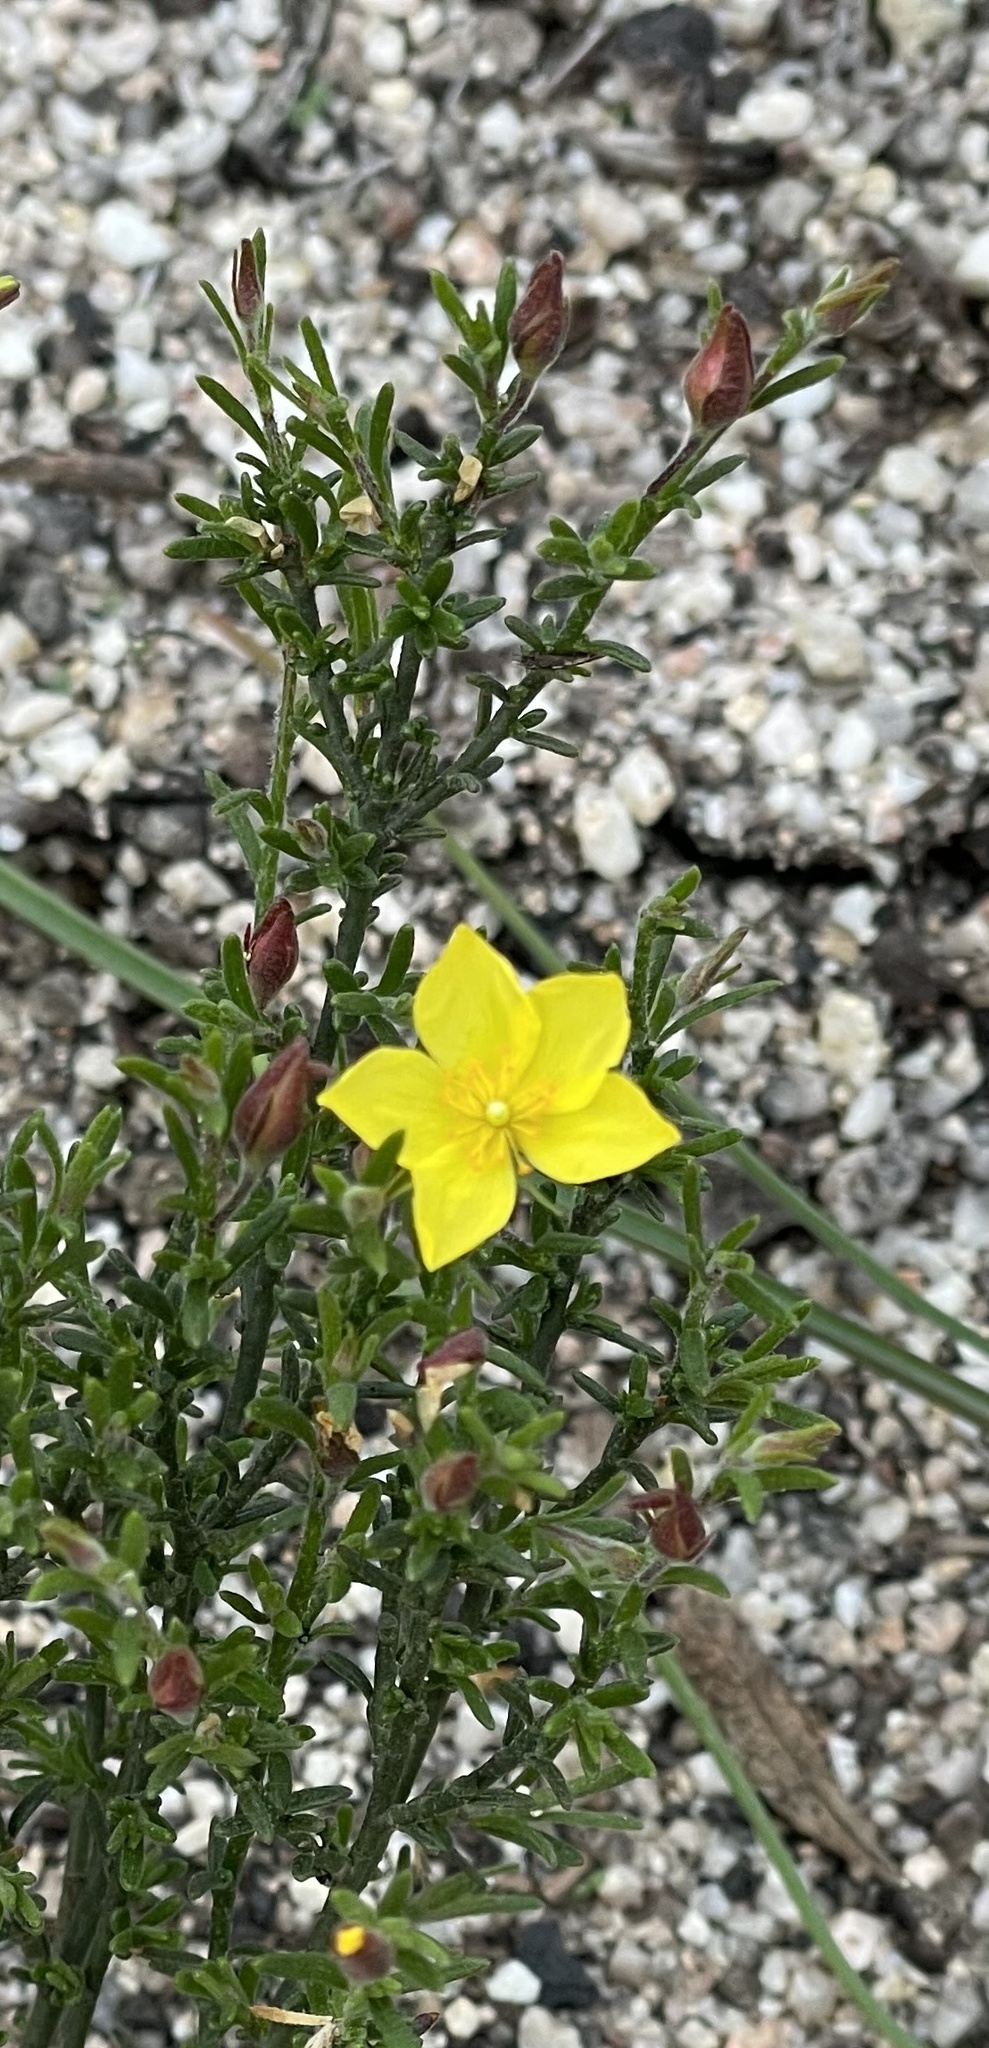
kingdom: Plantae
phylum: Tracheophyta
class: Magnoliopsida
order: Malvales
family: Cistaceae
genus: Crocanthemum
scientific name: Crocanthemum scoparium
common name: Broom-rose
